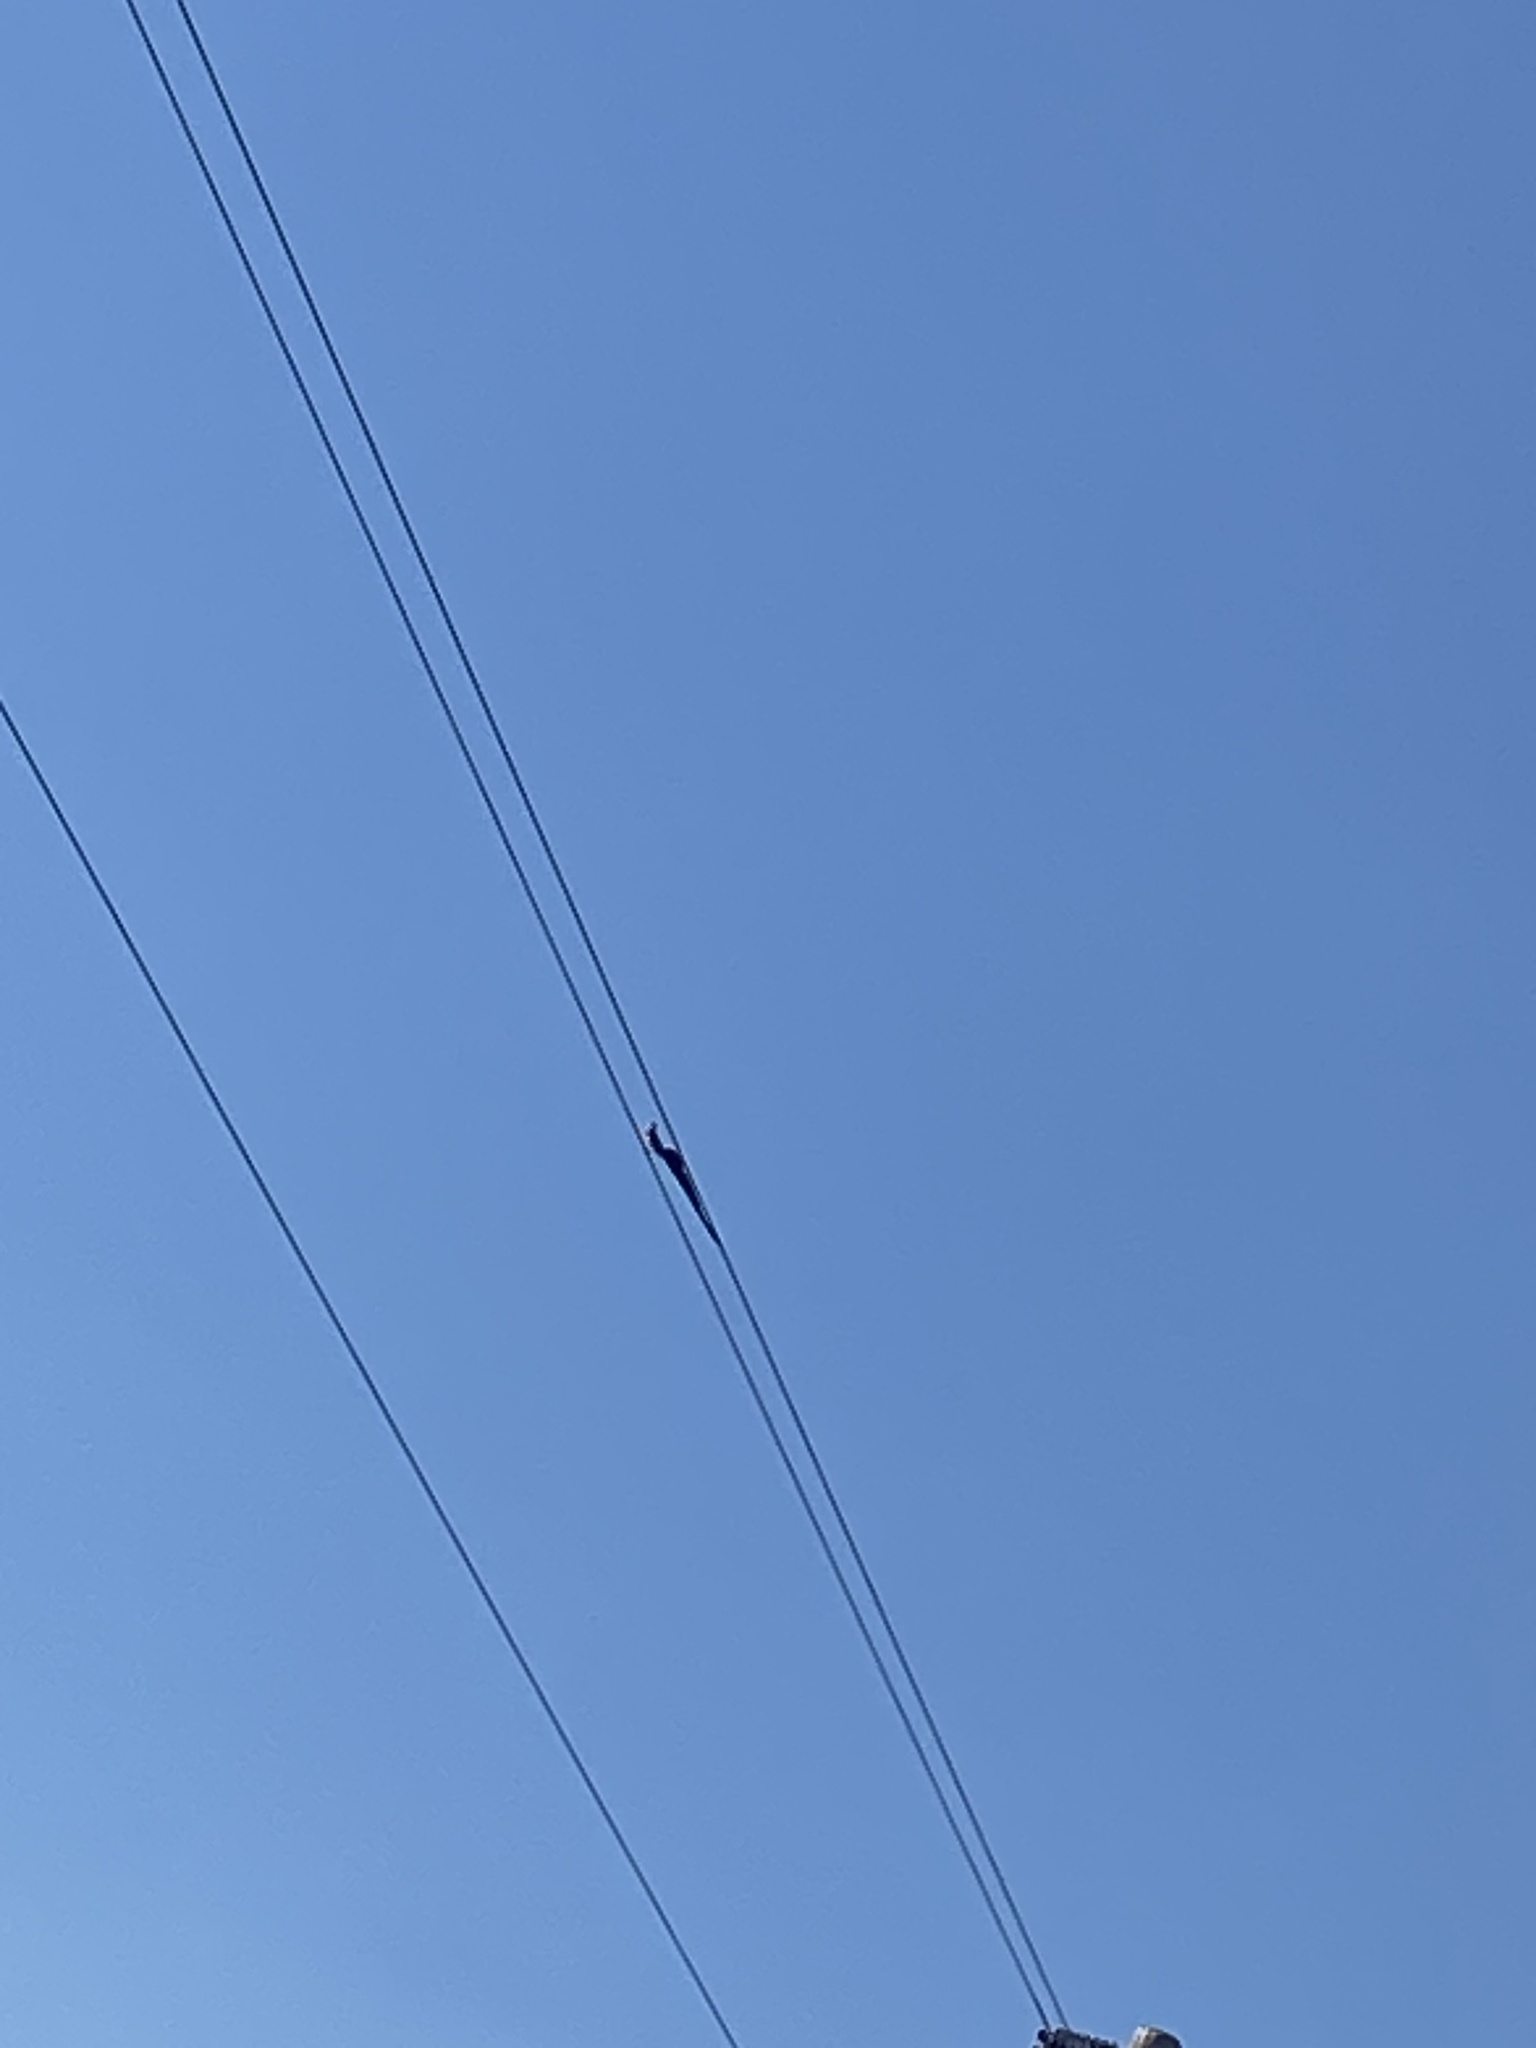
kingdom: Animalia
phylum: Chordata
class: Aves
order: Passeriformes
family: Viduidae
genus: Vidua
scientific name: Vidua paradisaea
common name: Long-tailed paradise whydah
